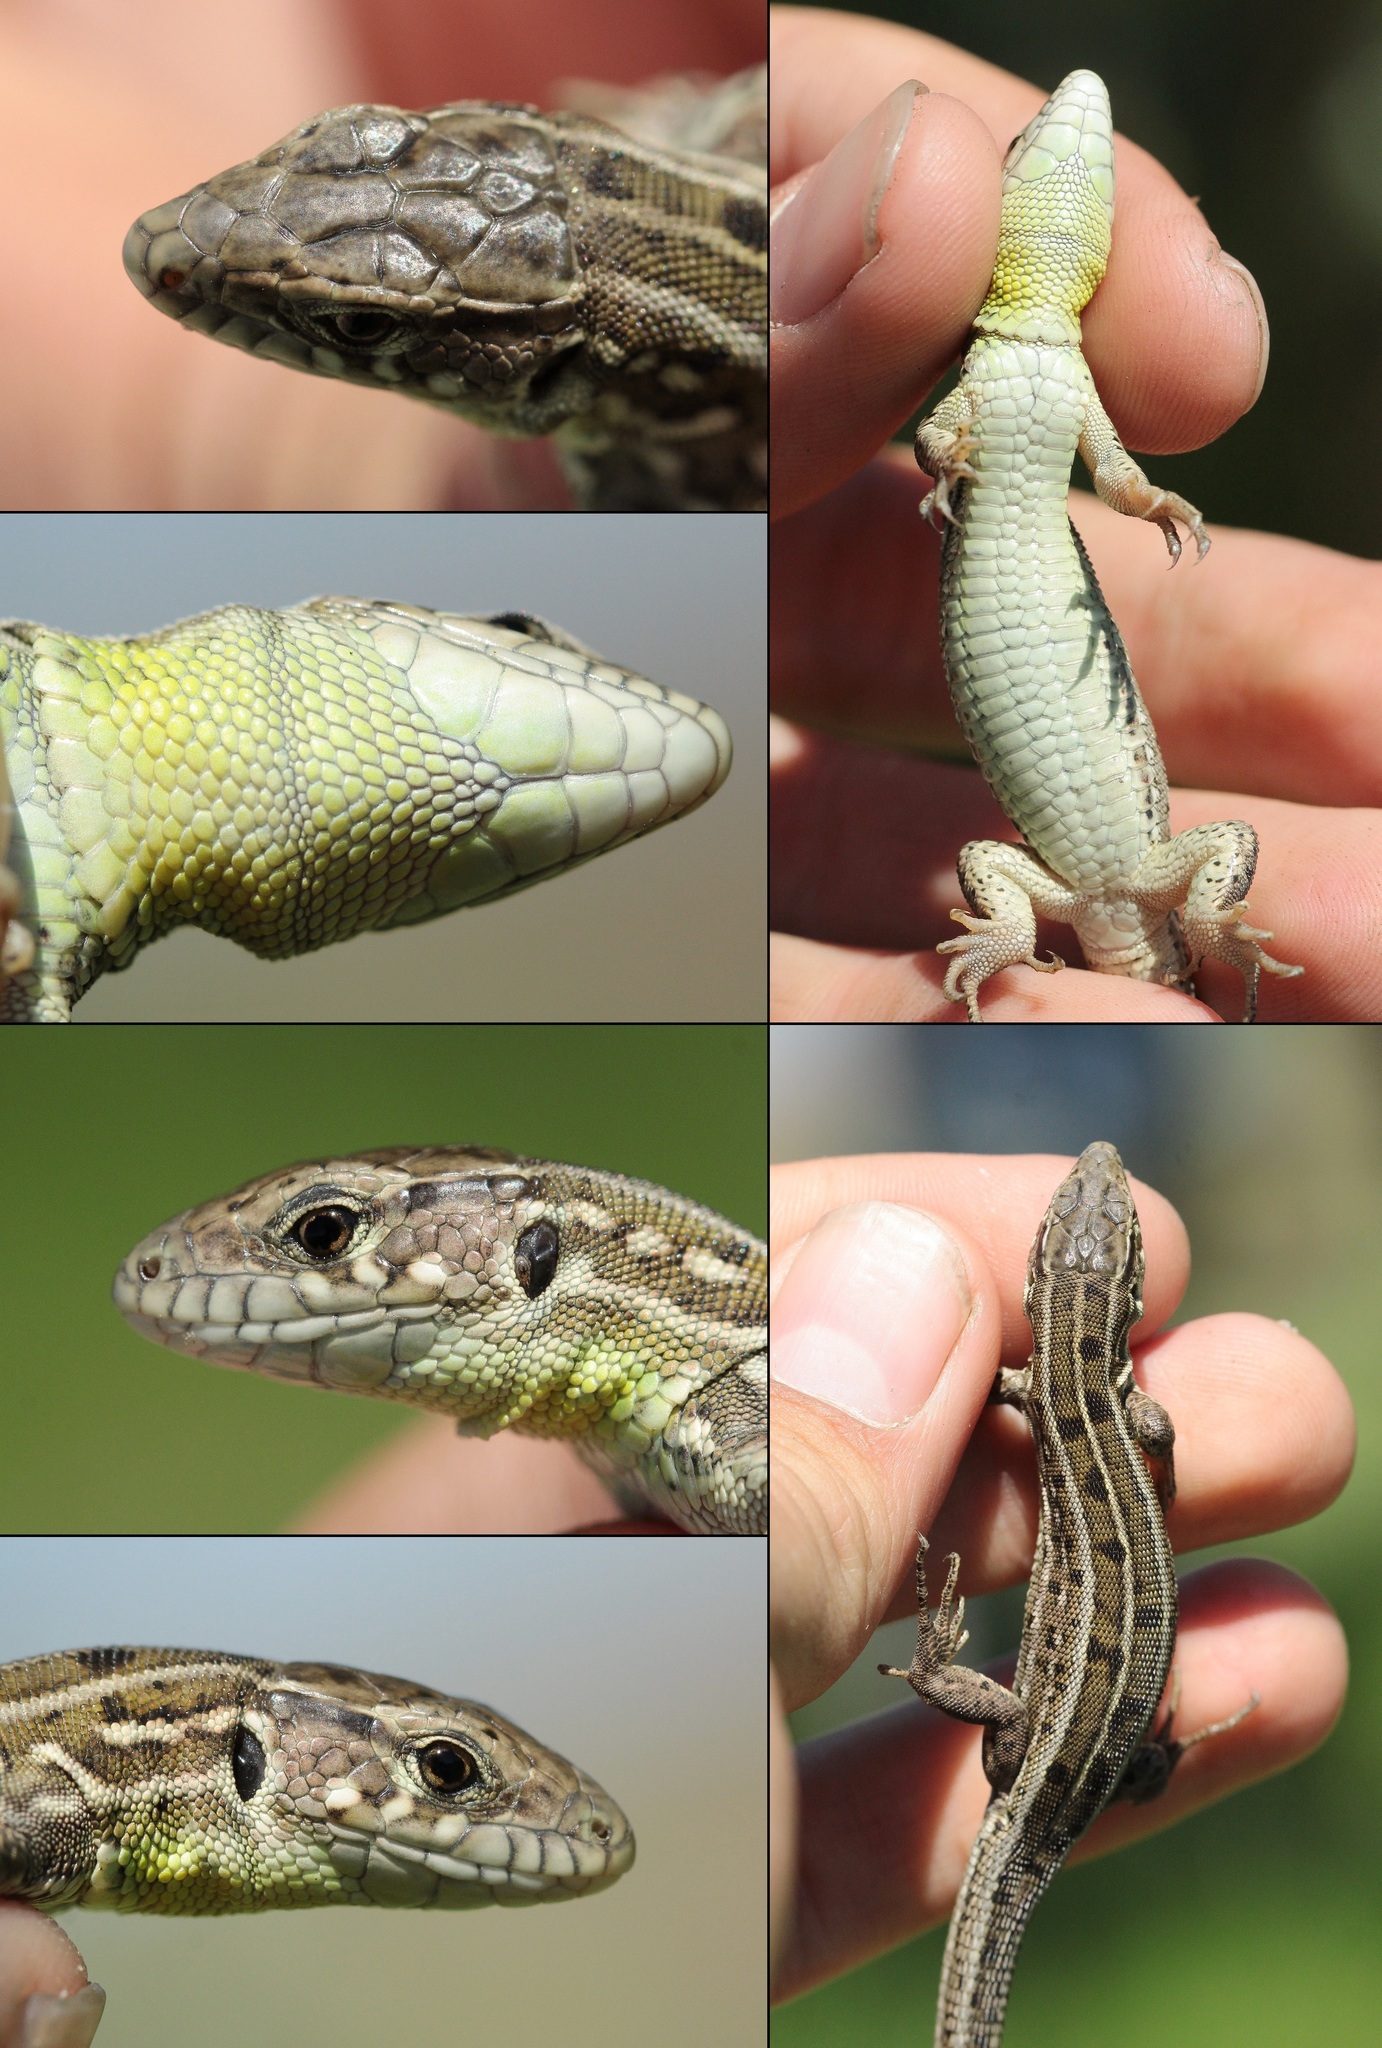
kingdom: Animalia
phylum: Chordata
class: Squamata
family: Lacertidae
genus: Lacerta
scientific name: Lacerta agilis
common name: Sand lizard
